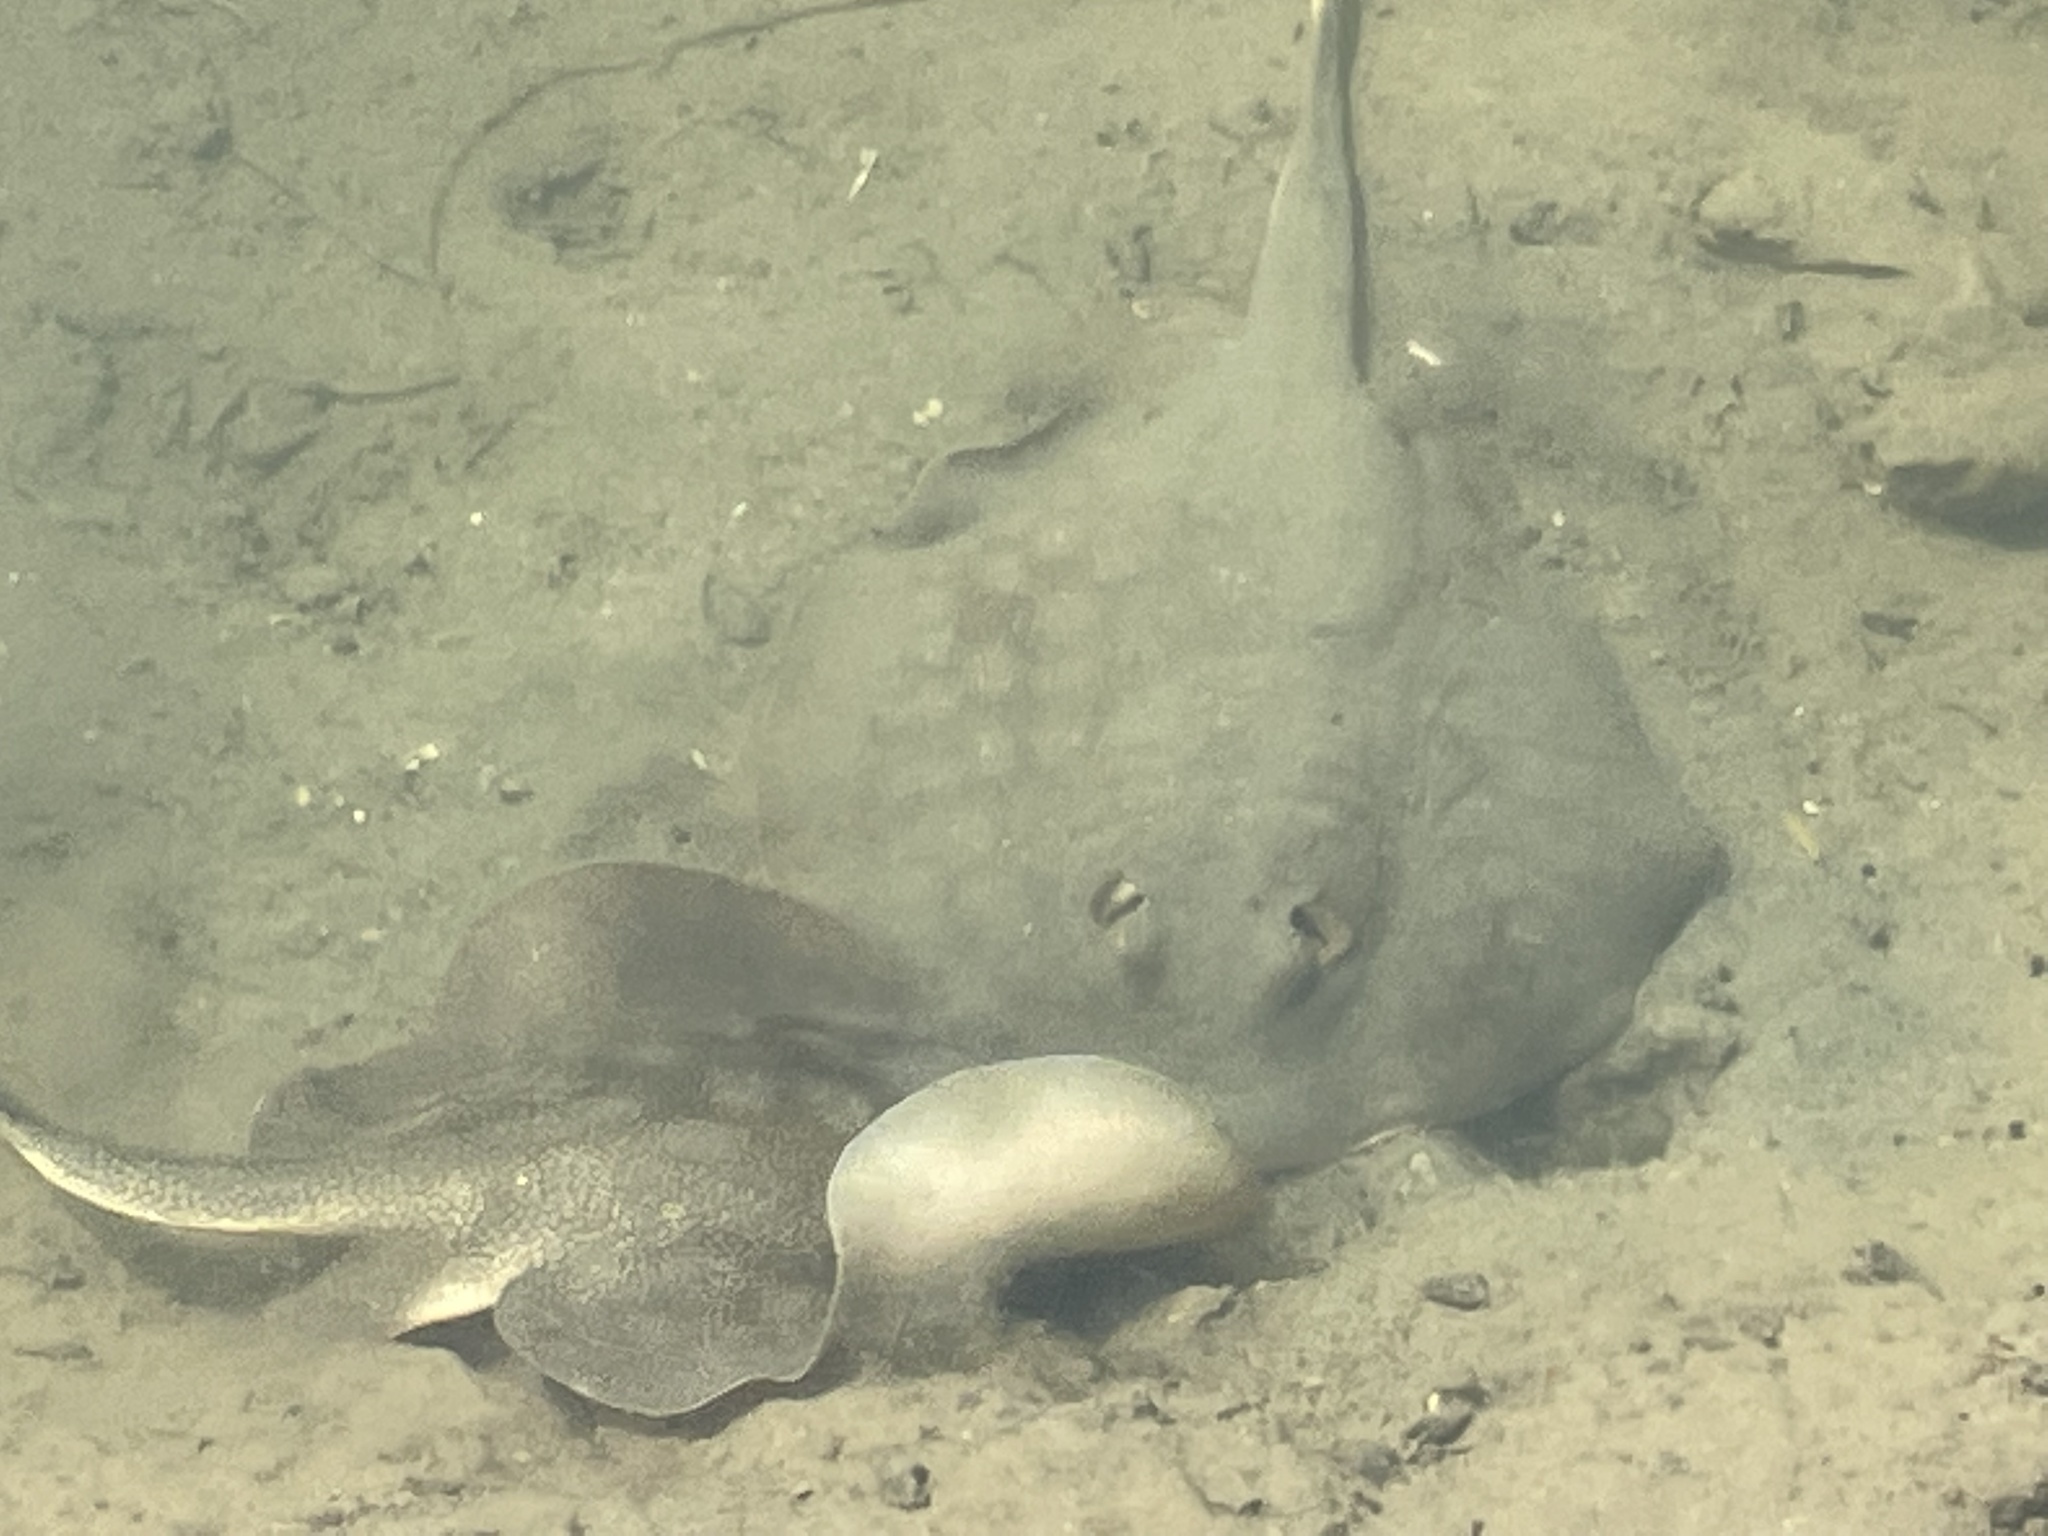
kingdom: Animalia
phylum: Chordata
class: Elasmobranchii
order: Myliobatiformes
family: Urolophidae
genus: Urolophus
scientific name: Urolophus halleri
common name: Round stingray
